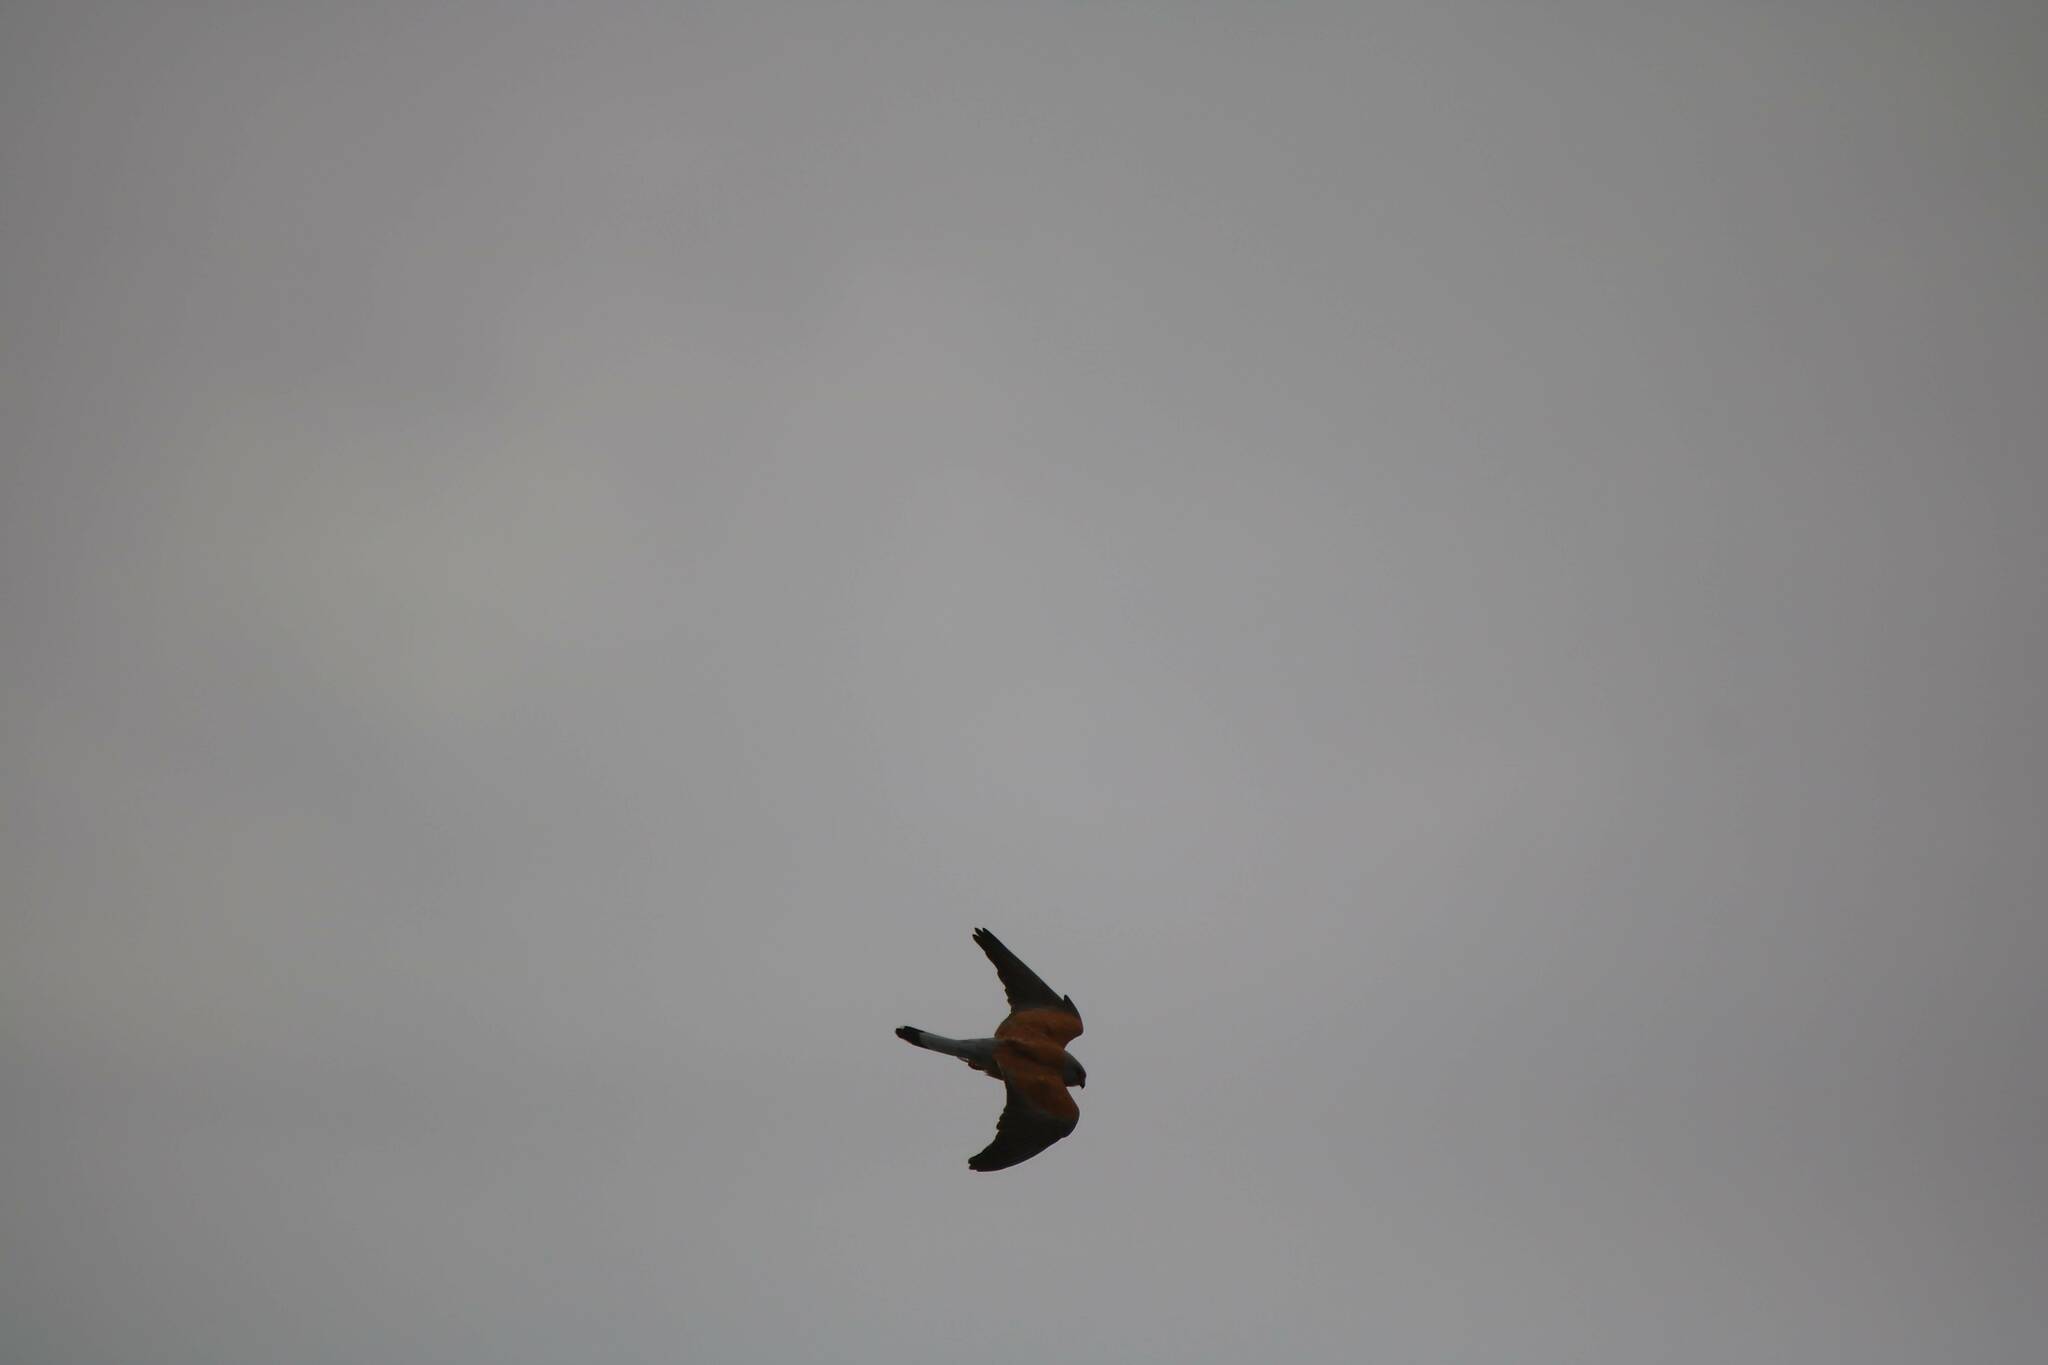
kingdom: Animalia
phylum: Chordata
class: Aves
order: Falconiformes
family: Falconidae
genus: Falco
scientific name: Falco naumanni
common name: Lesser kestrel
